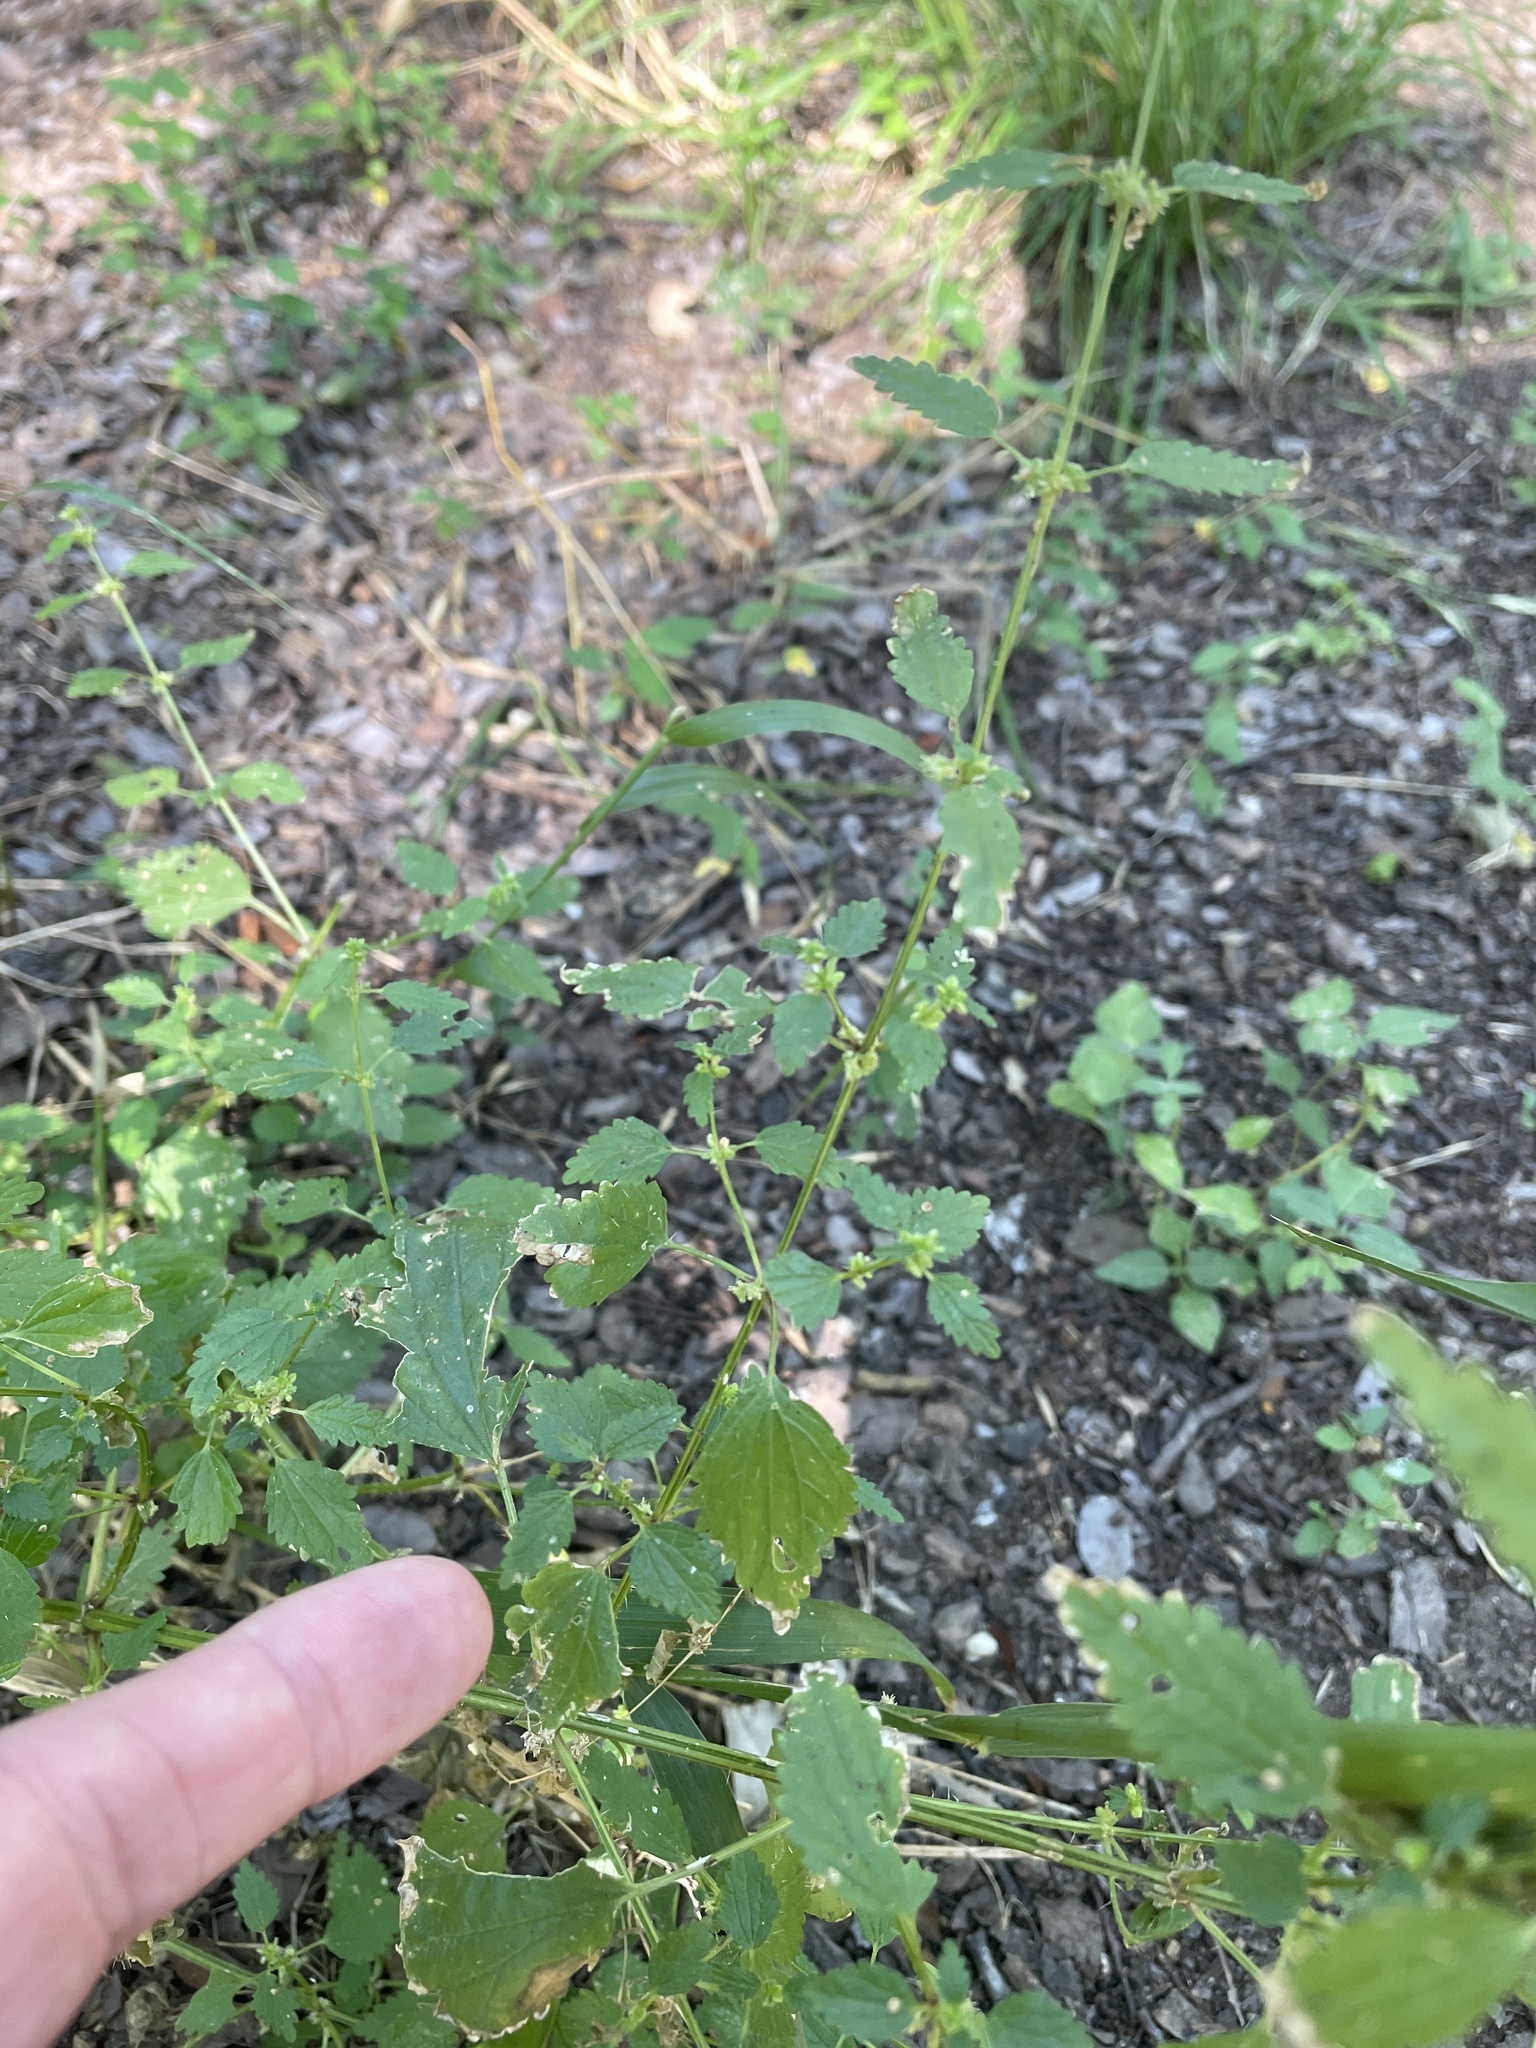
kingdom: Plantae
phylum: Tracheophyta
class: Magnoliopsida
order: Rosales
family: Urticaceae
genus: Urtica
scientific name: Urtica chamaedryoides
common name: Heart-leaf nettle
